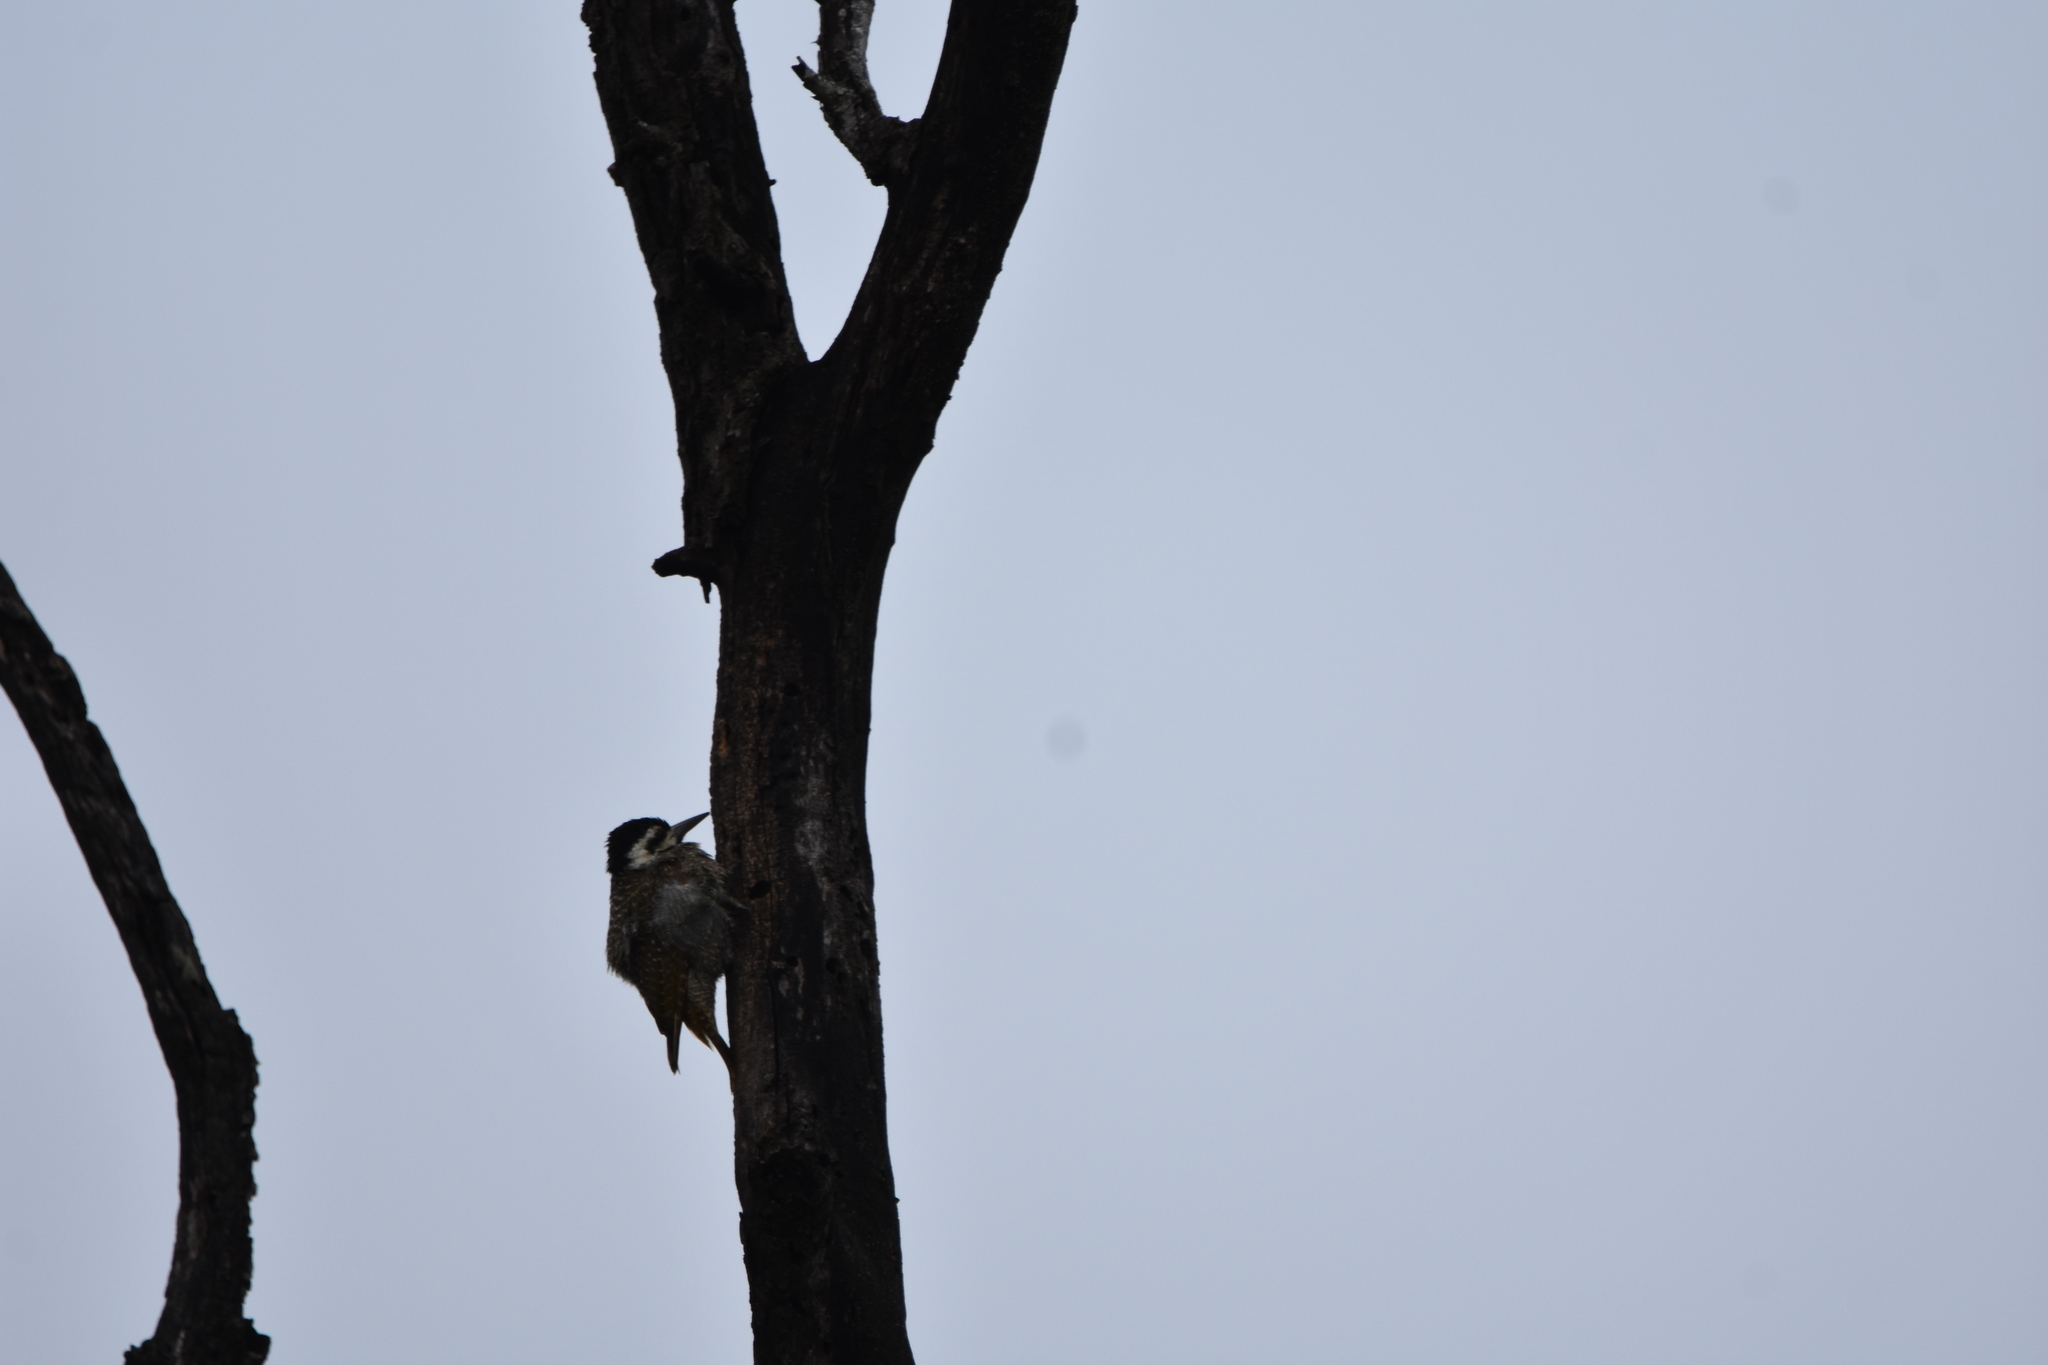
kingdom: Animalia
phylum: Chordata
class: Aves
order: Piciformes
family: Picidae
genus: Chloropicus
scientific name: Chloropicus namaquus
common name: Bearded woodpecker
